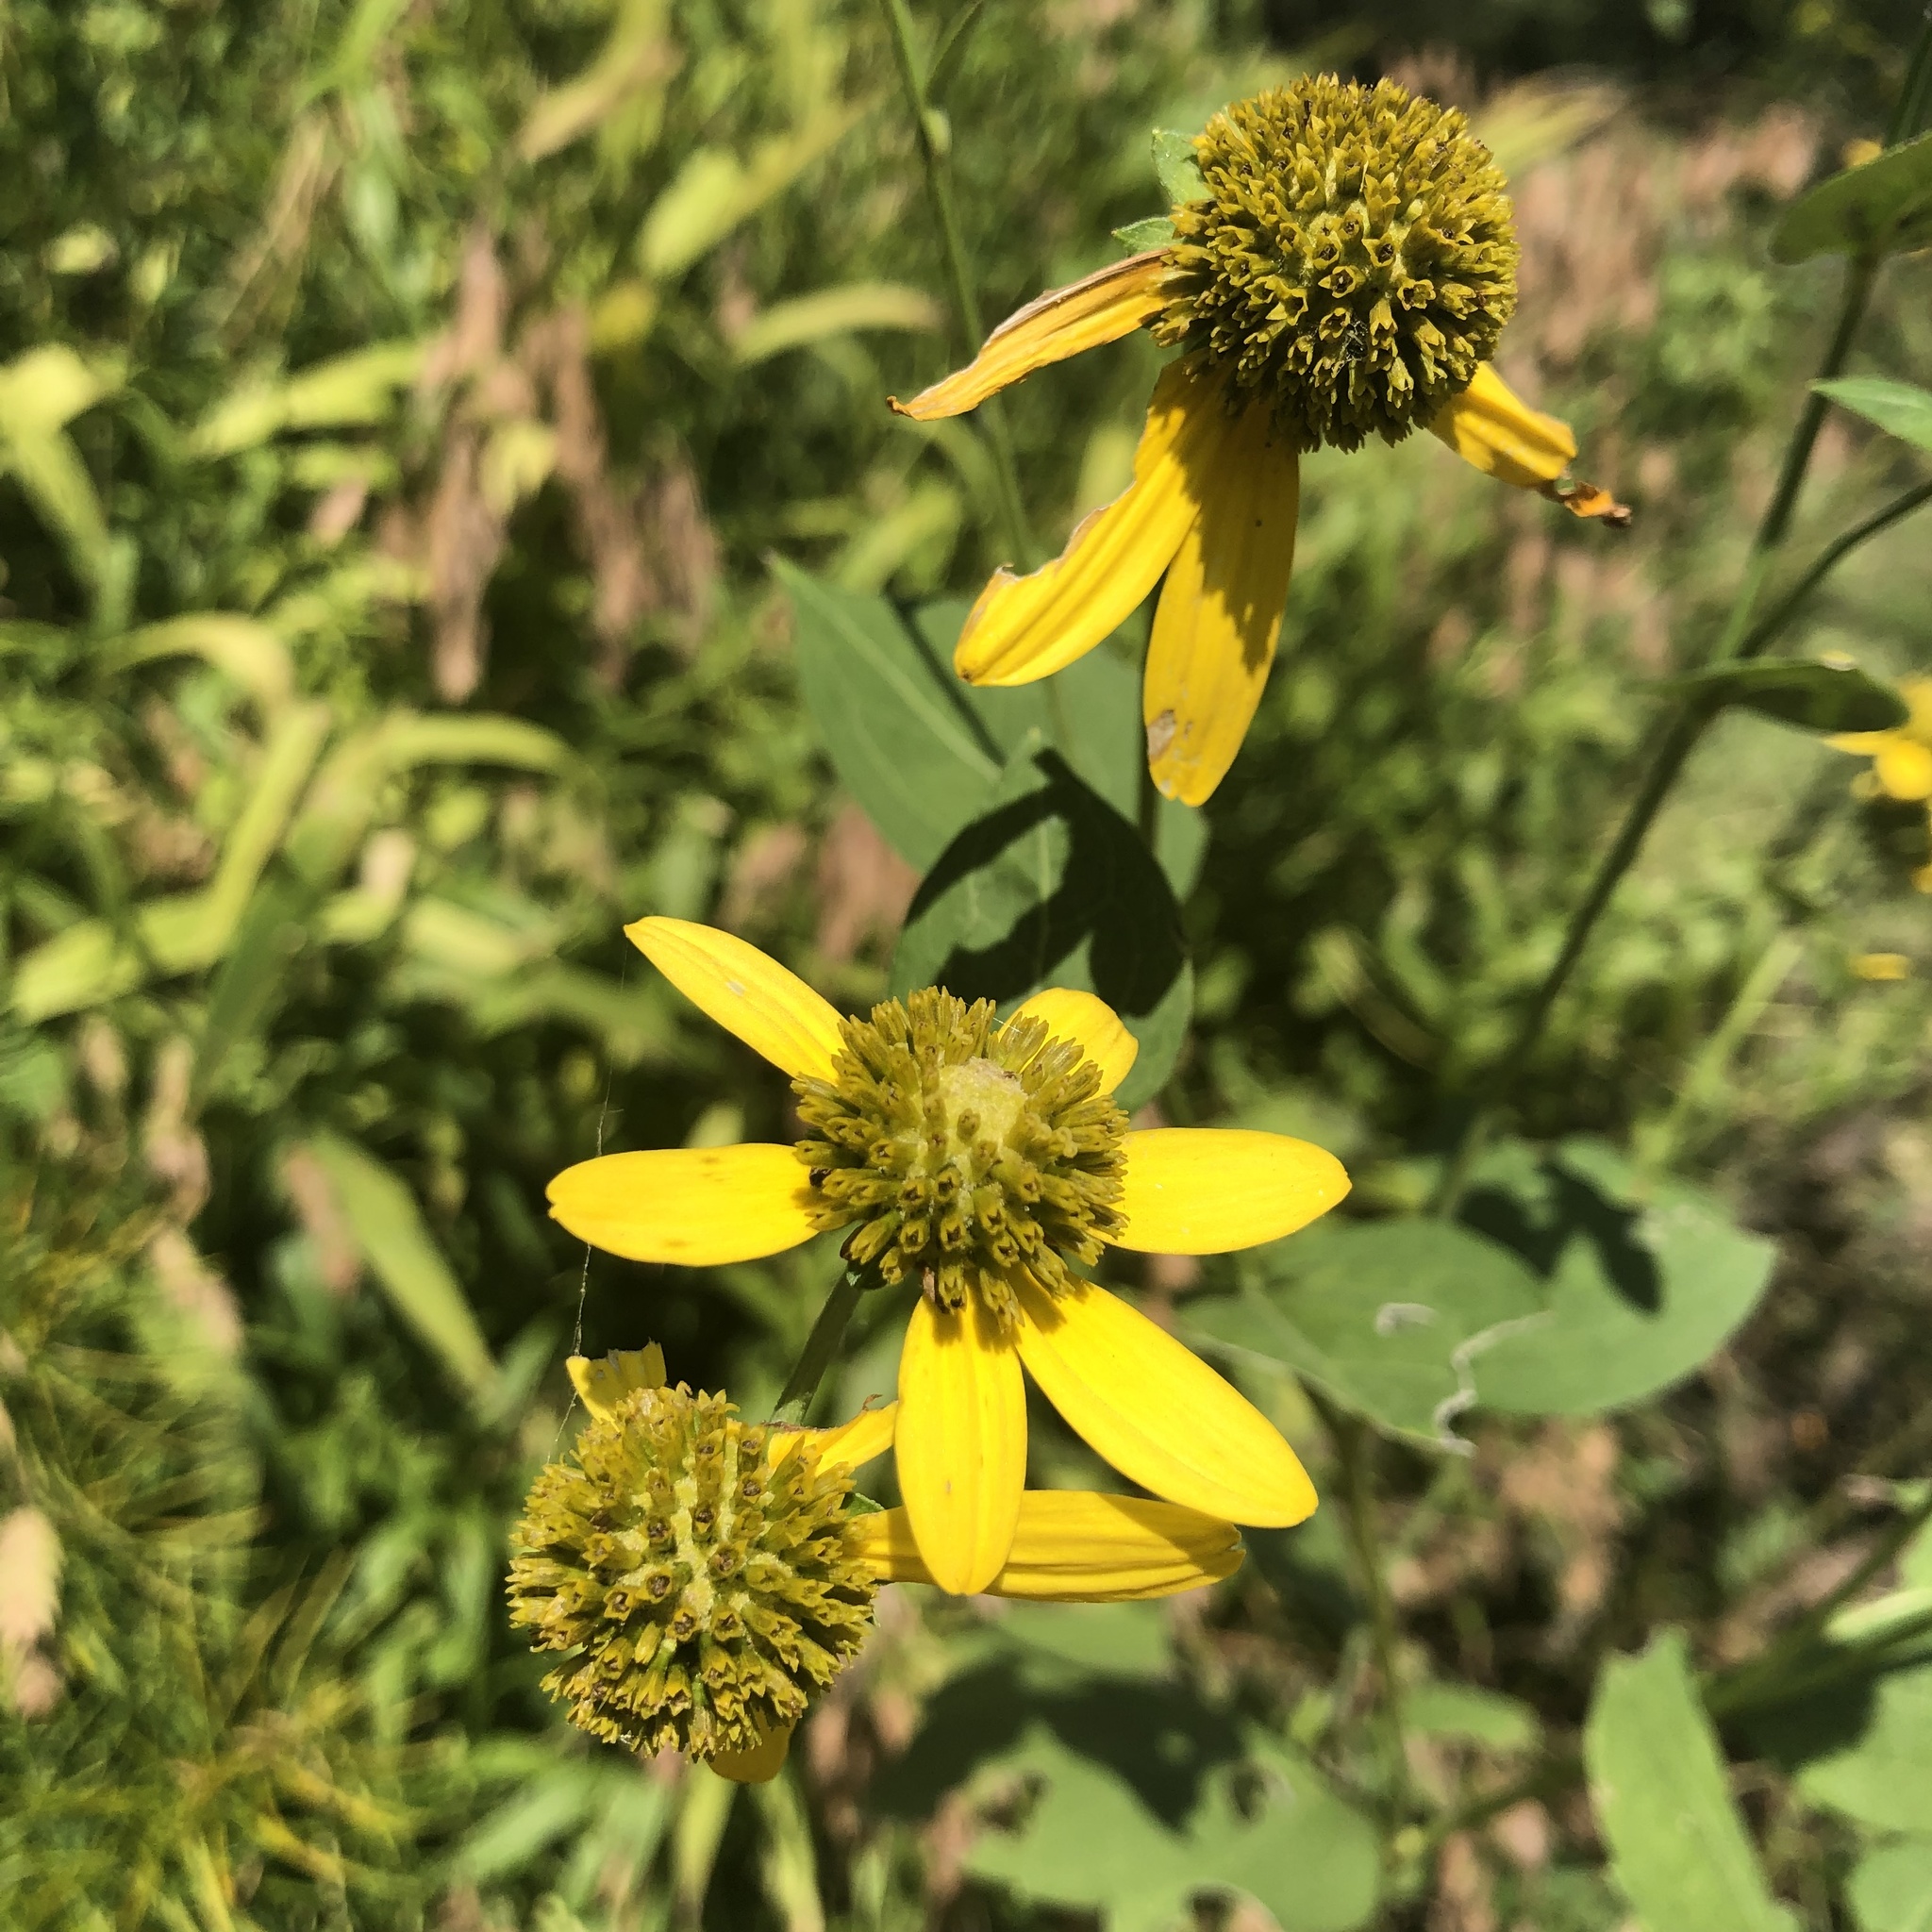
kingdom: Plantae
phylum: Tracheophyta
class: Magnoliopsida
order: Asterales
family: Asteraceae
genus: Rudbeckia
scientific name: Rudbeckia laciniata
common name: Coneflower
